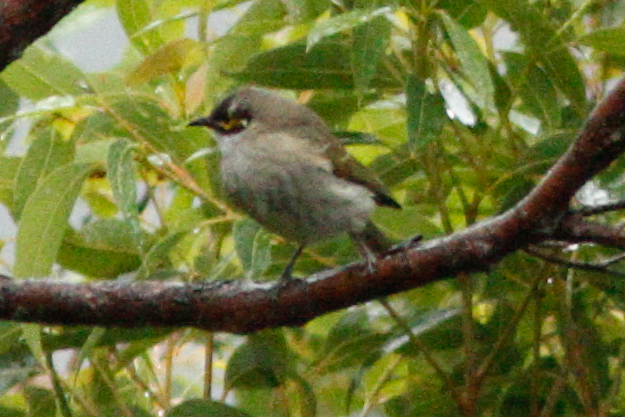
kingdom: Animalia
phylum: Chordata
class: Aves
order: Passeriformes
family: Meliphagidae
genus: Caligavis
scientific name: Caligavis chrysops
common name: Yellow-faced honeyeater
